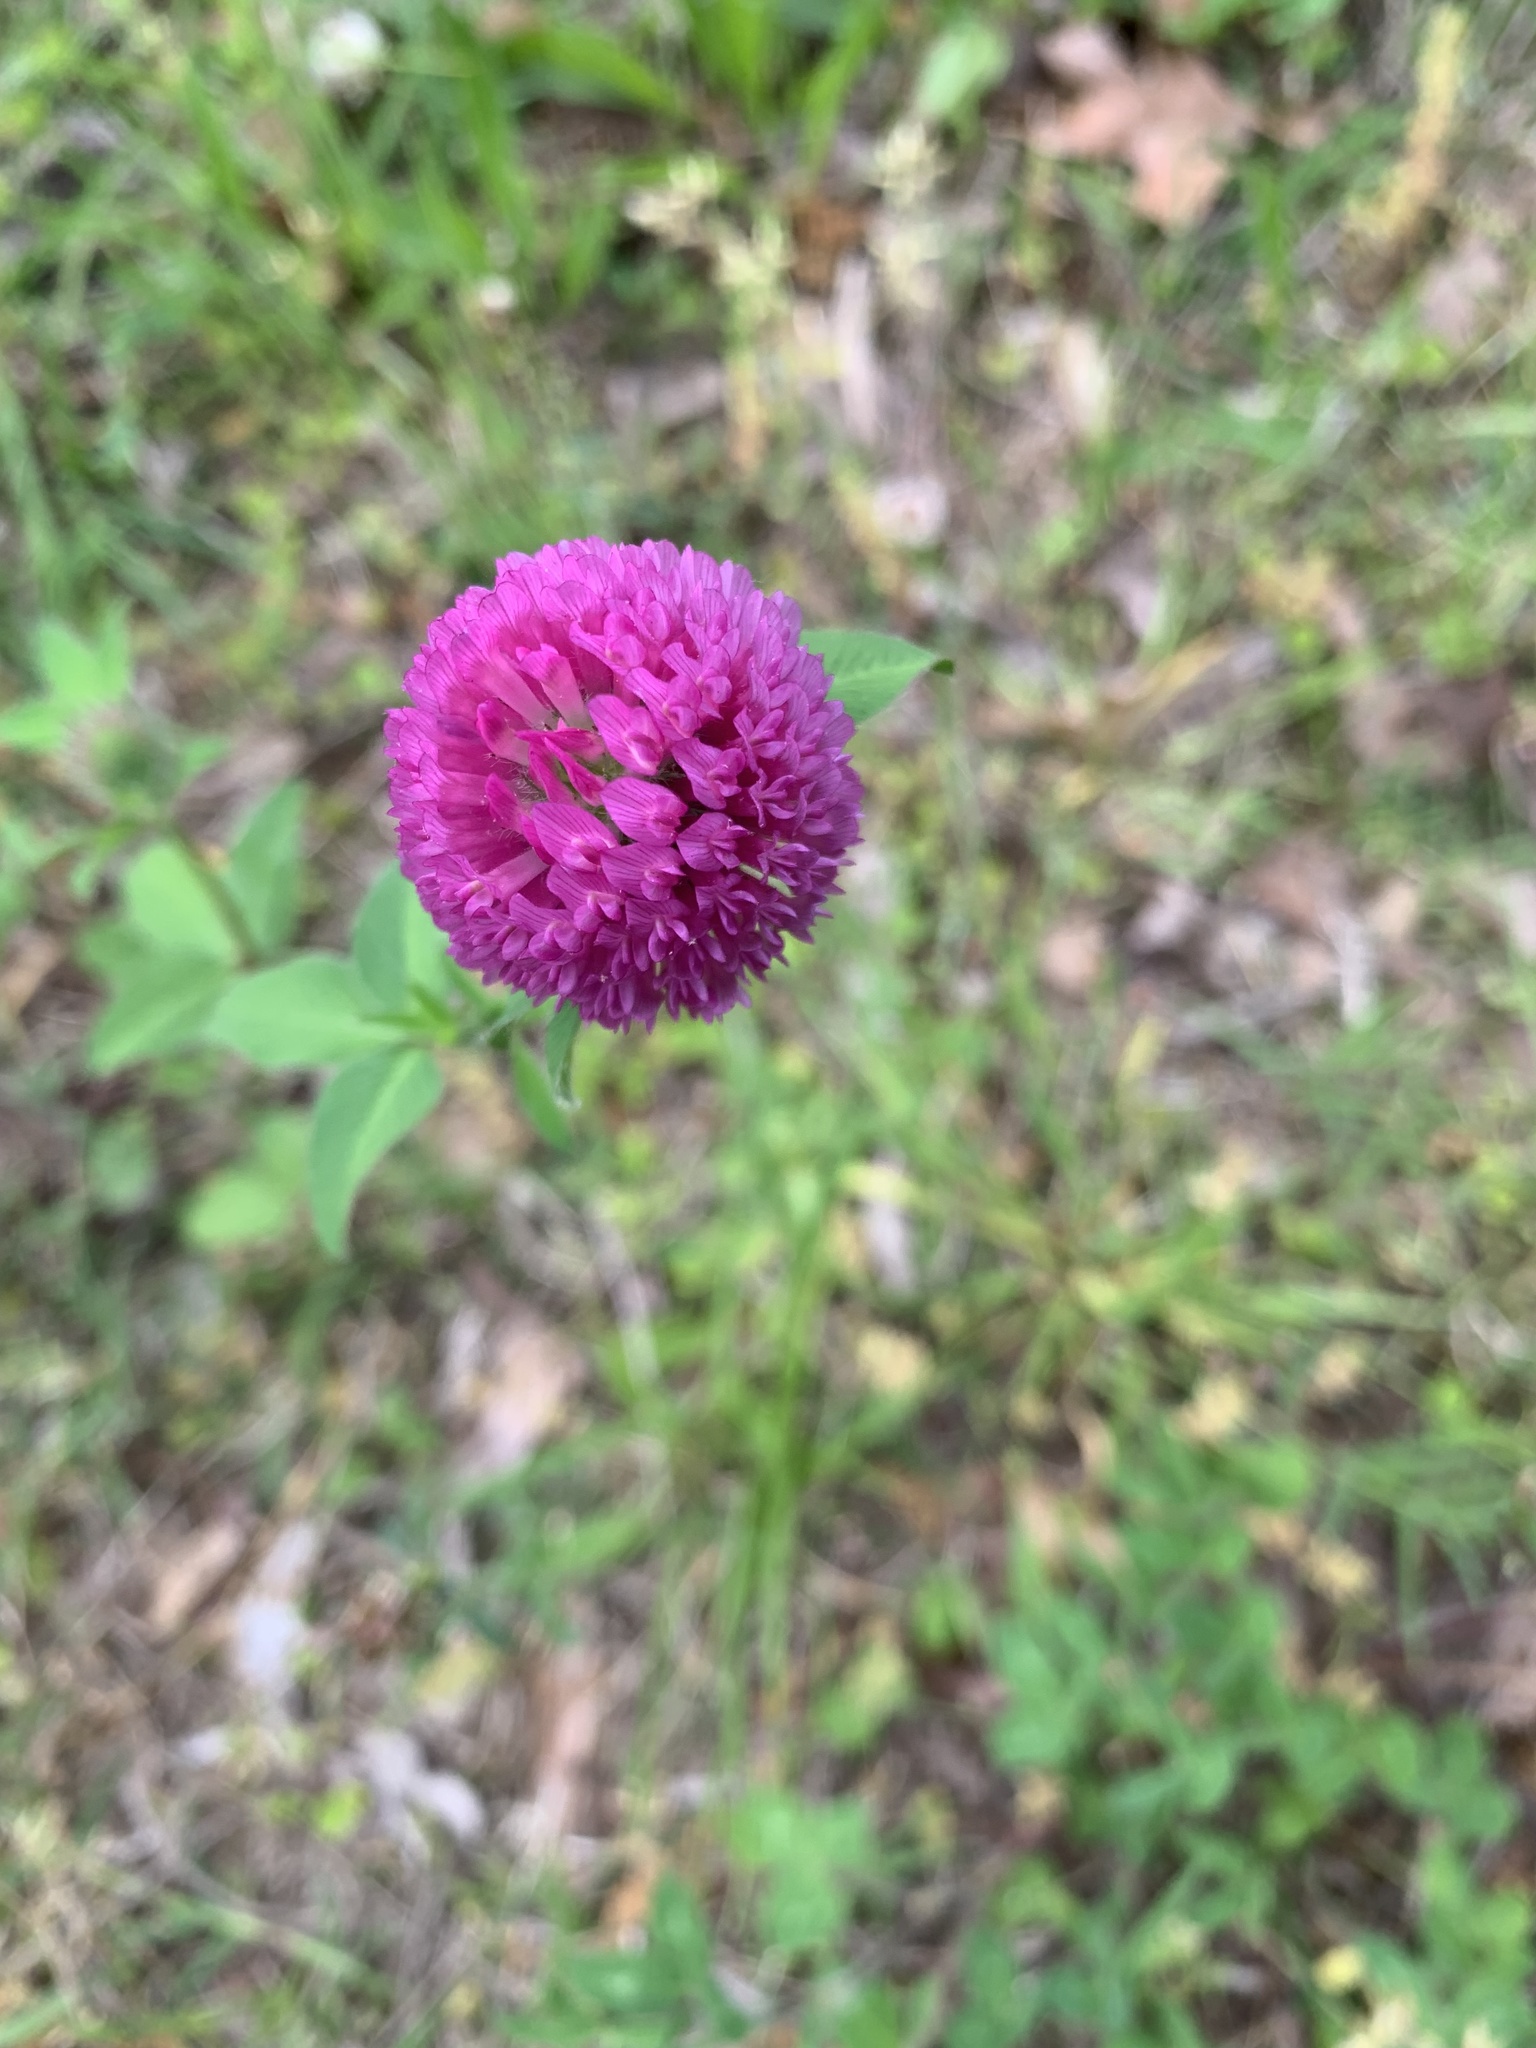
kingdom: Plantae
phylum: Tracheophyta
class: Magnoliopsida
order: Fabales
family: Fabaceae
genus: Trifolium
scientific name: Trifolium pratense
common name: Red clover
